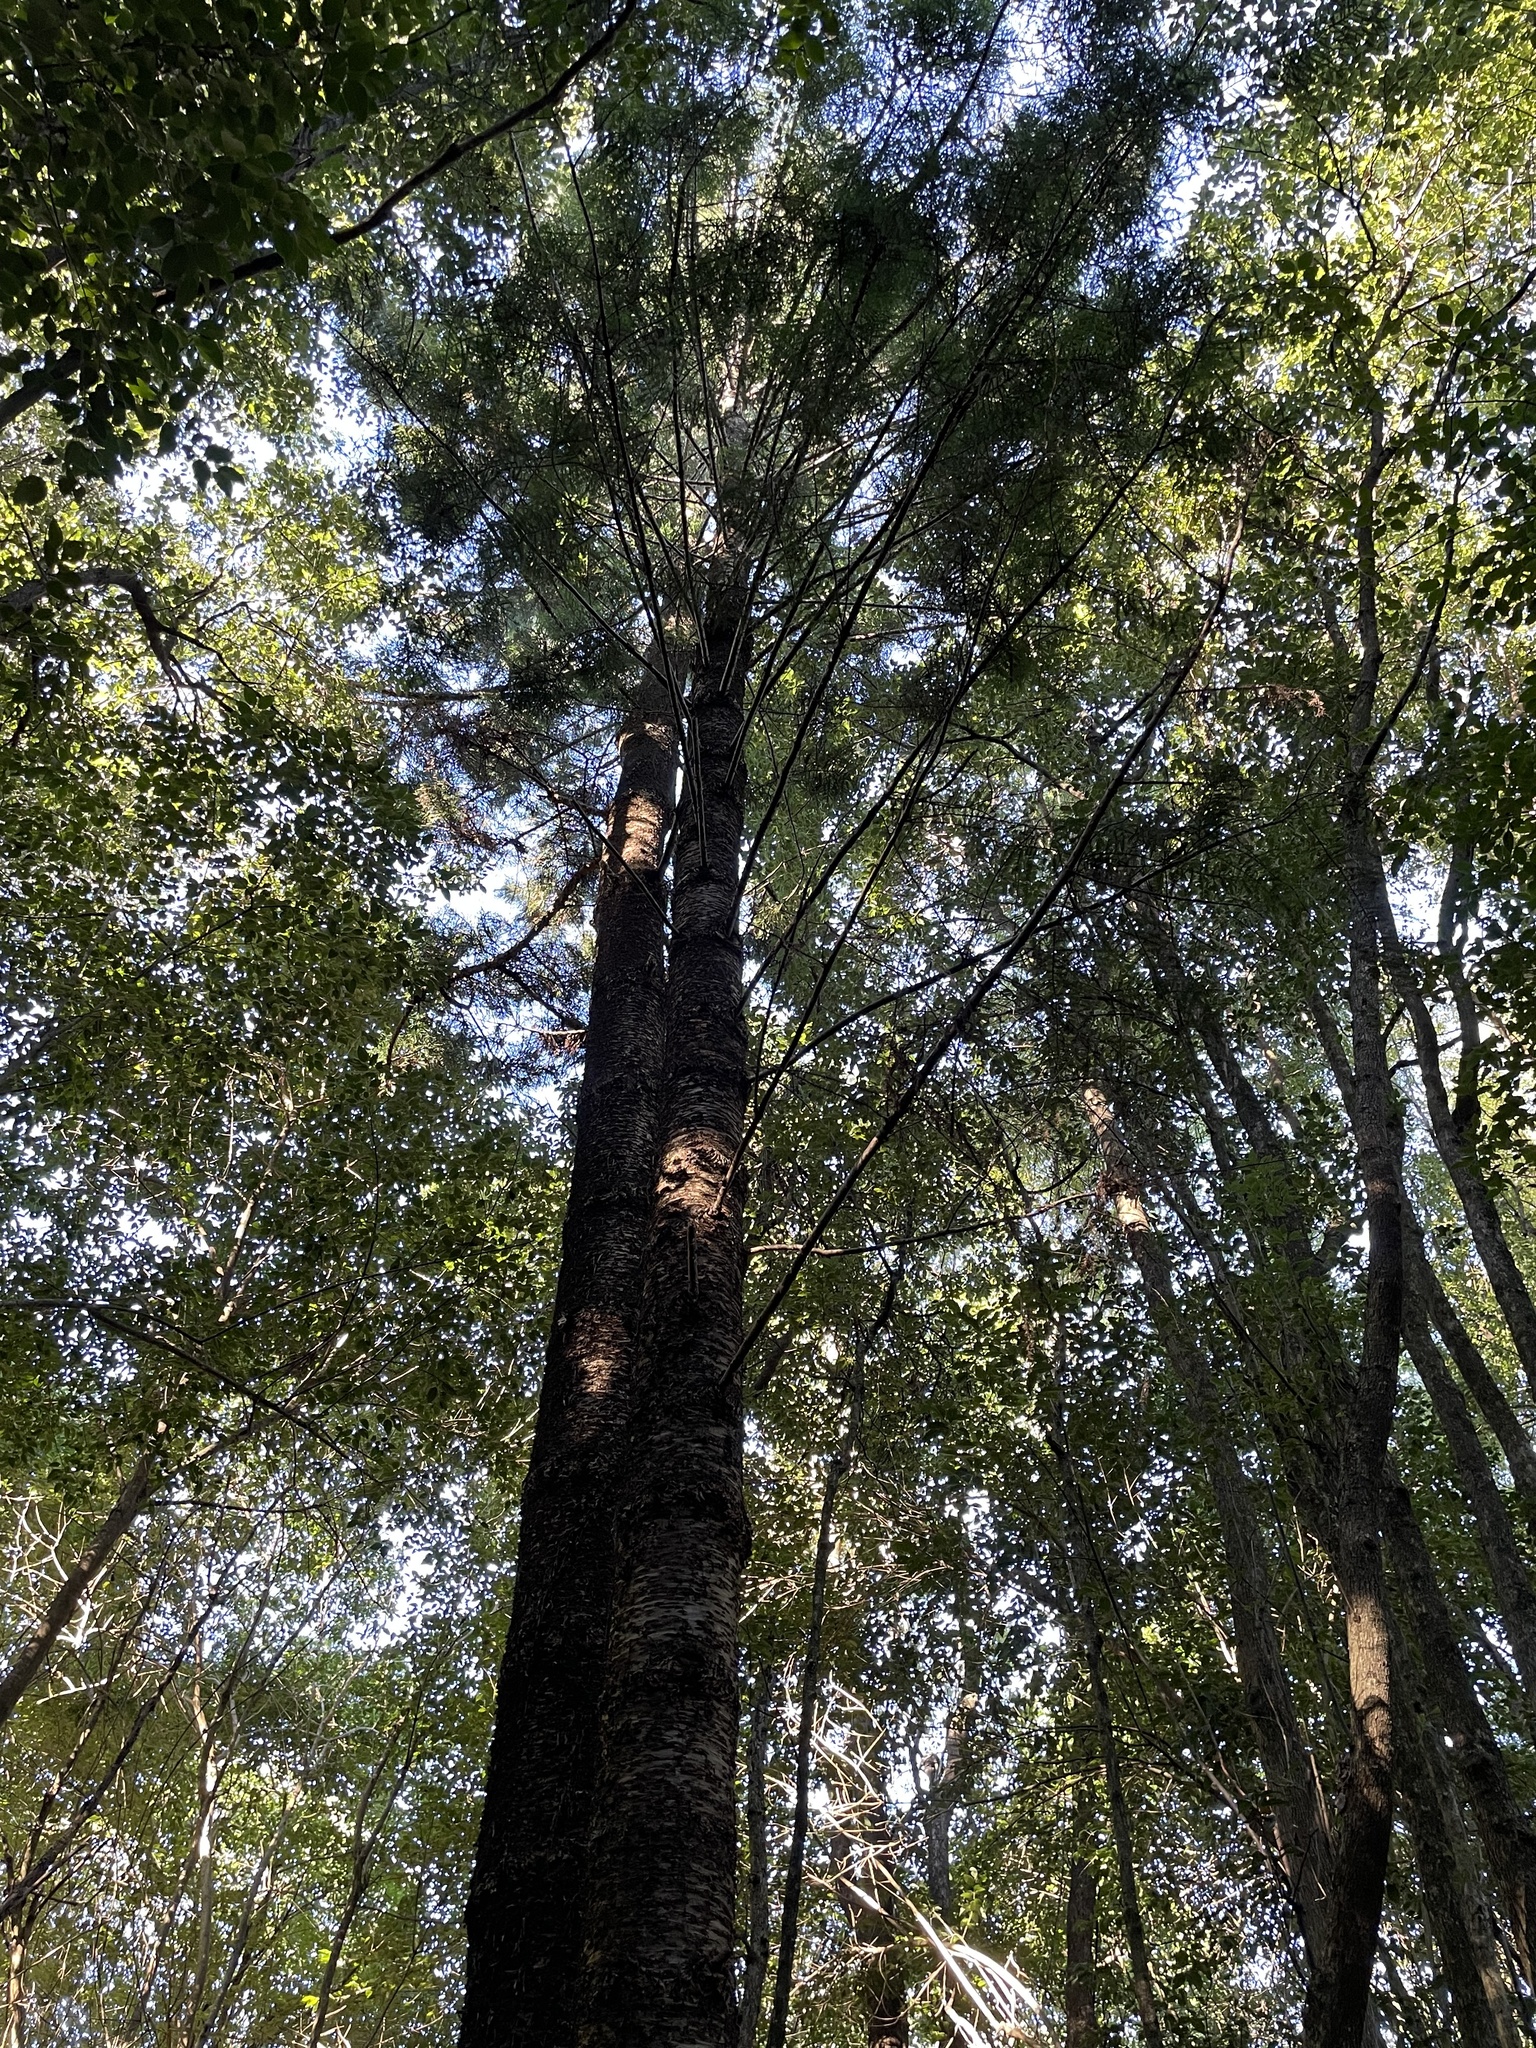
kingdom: Plantae
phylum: Tracheophyta
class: Pinopsida
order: Pinales
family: Araucariaceae
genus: Araucaria
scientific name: Araucaria cunninghamii
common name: Colonial pine
